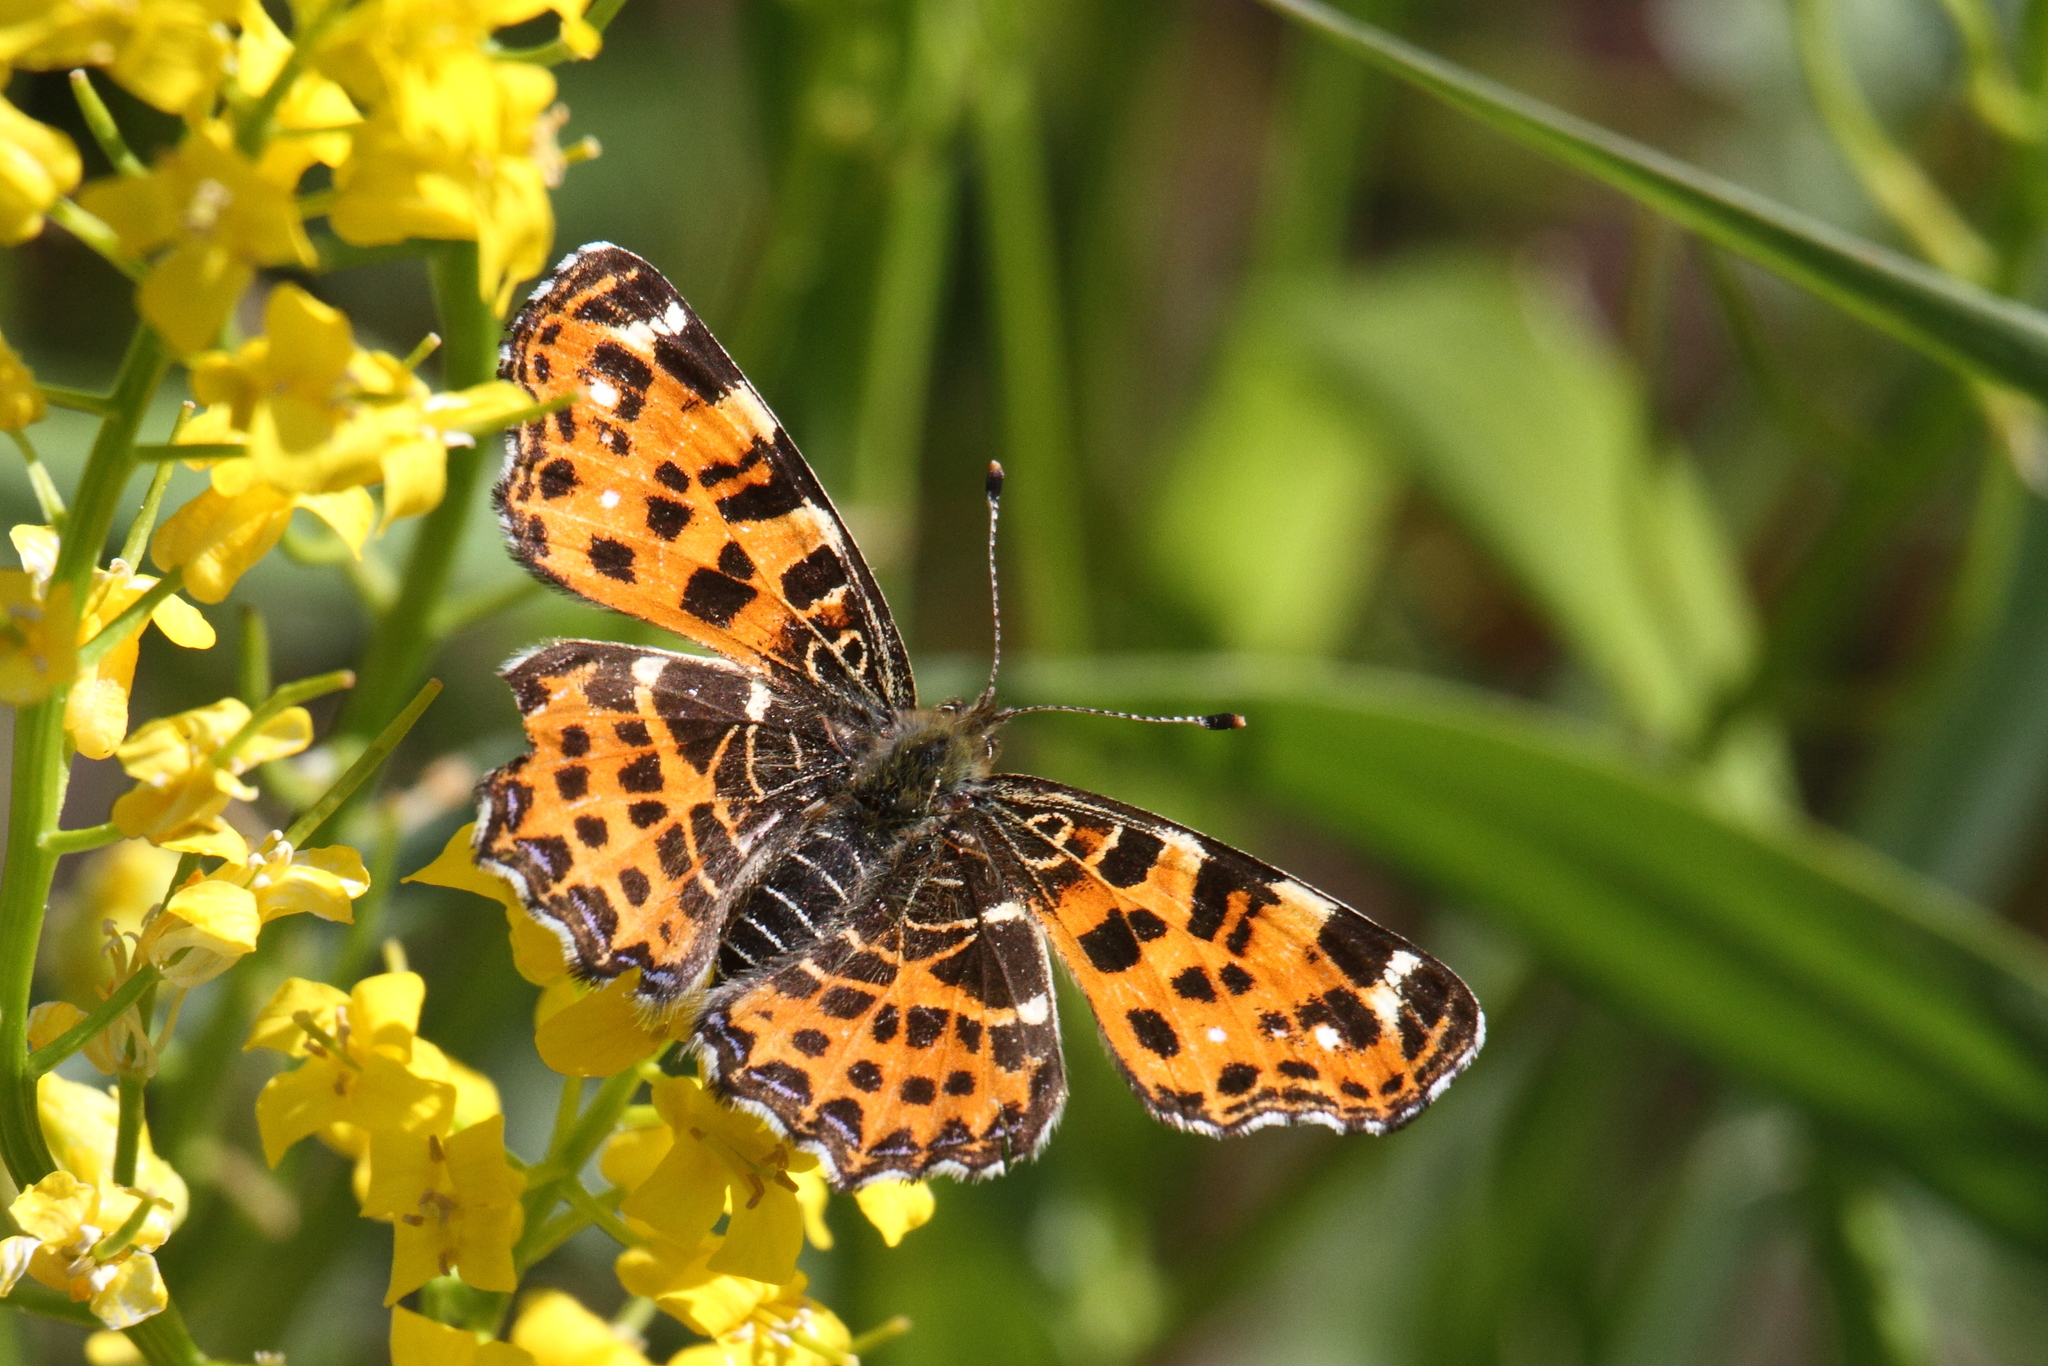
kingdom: Animalia
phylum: Arthropoda
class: Insecta
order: Lepidoptera
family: Nymphalidae
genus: Araschnia
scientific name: Araschnia levana
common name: Map butterfly
